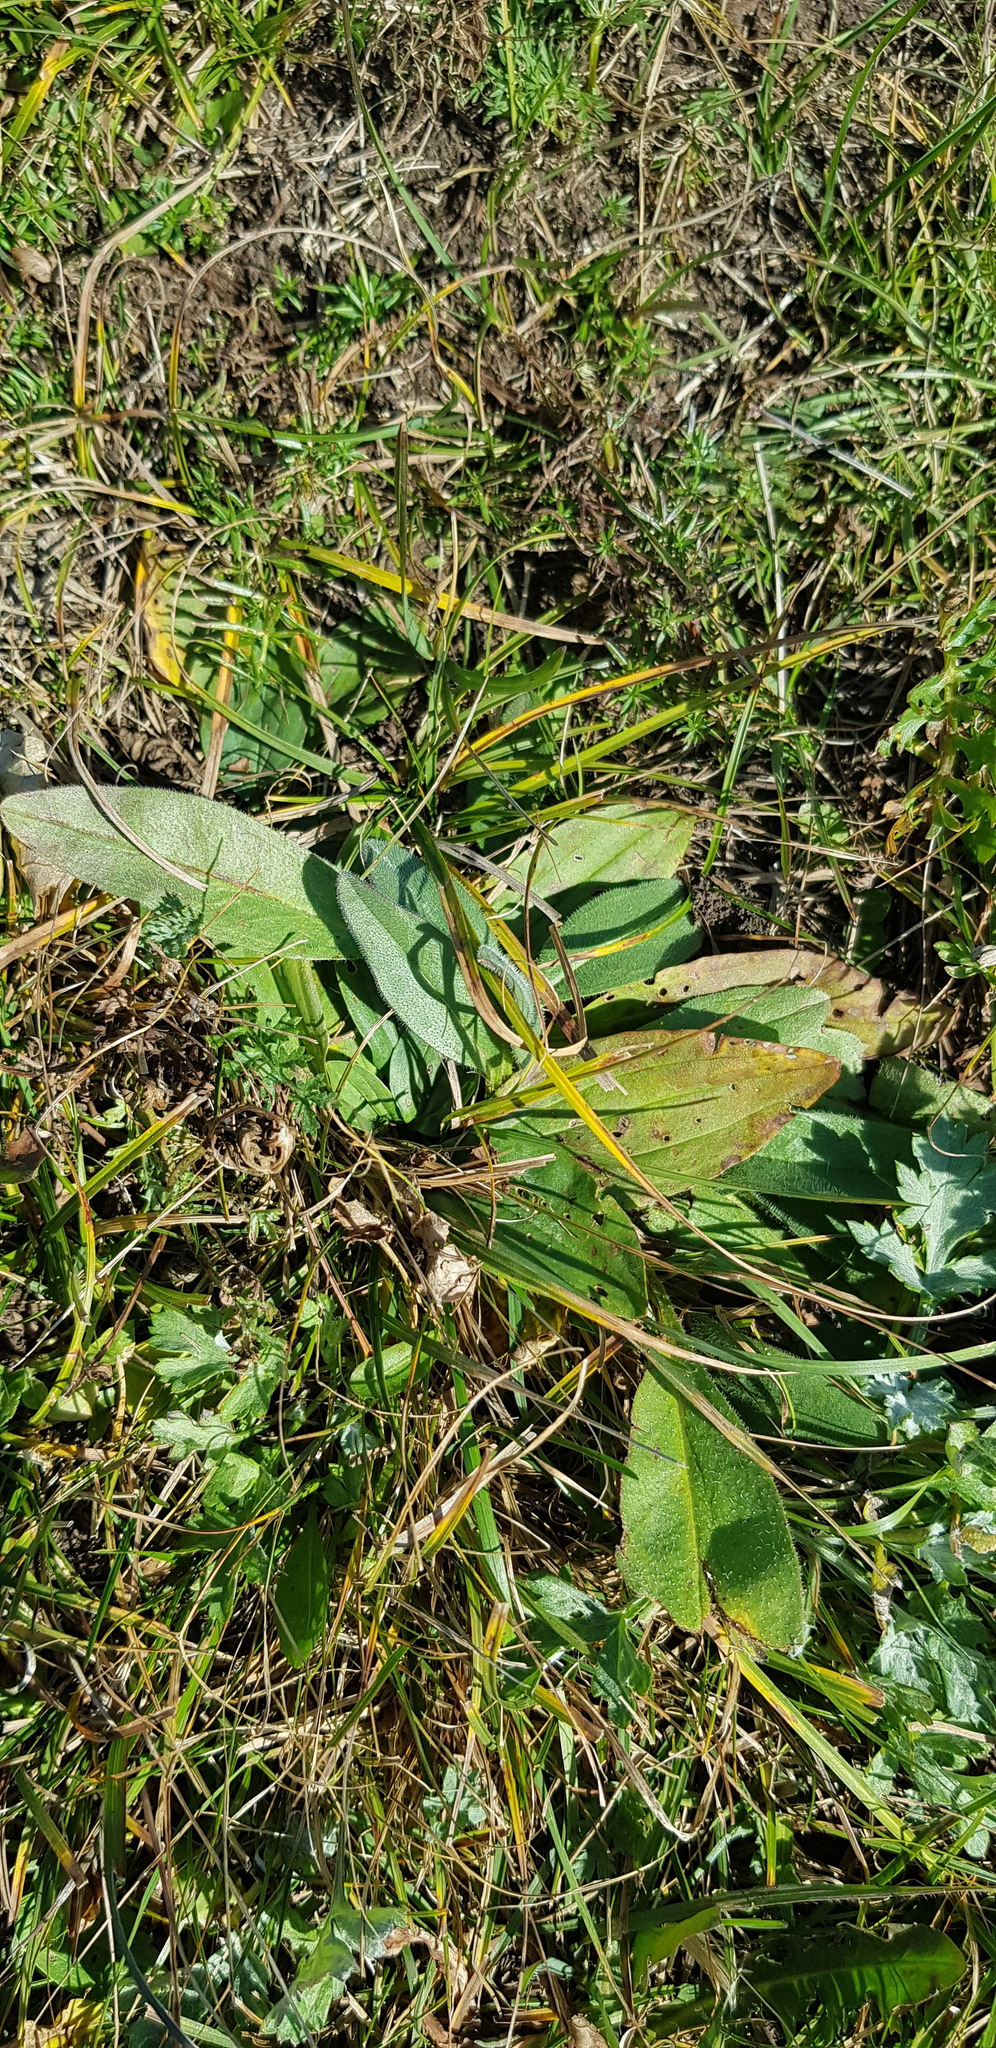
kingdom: Plantae
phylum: Tracheophyta
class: Magnoliopsida
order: Lamiales
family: Plantaginaceae
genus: Plantago
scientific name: Plantago depressa
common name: Depressed plantain
